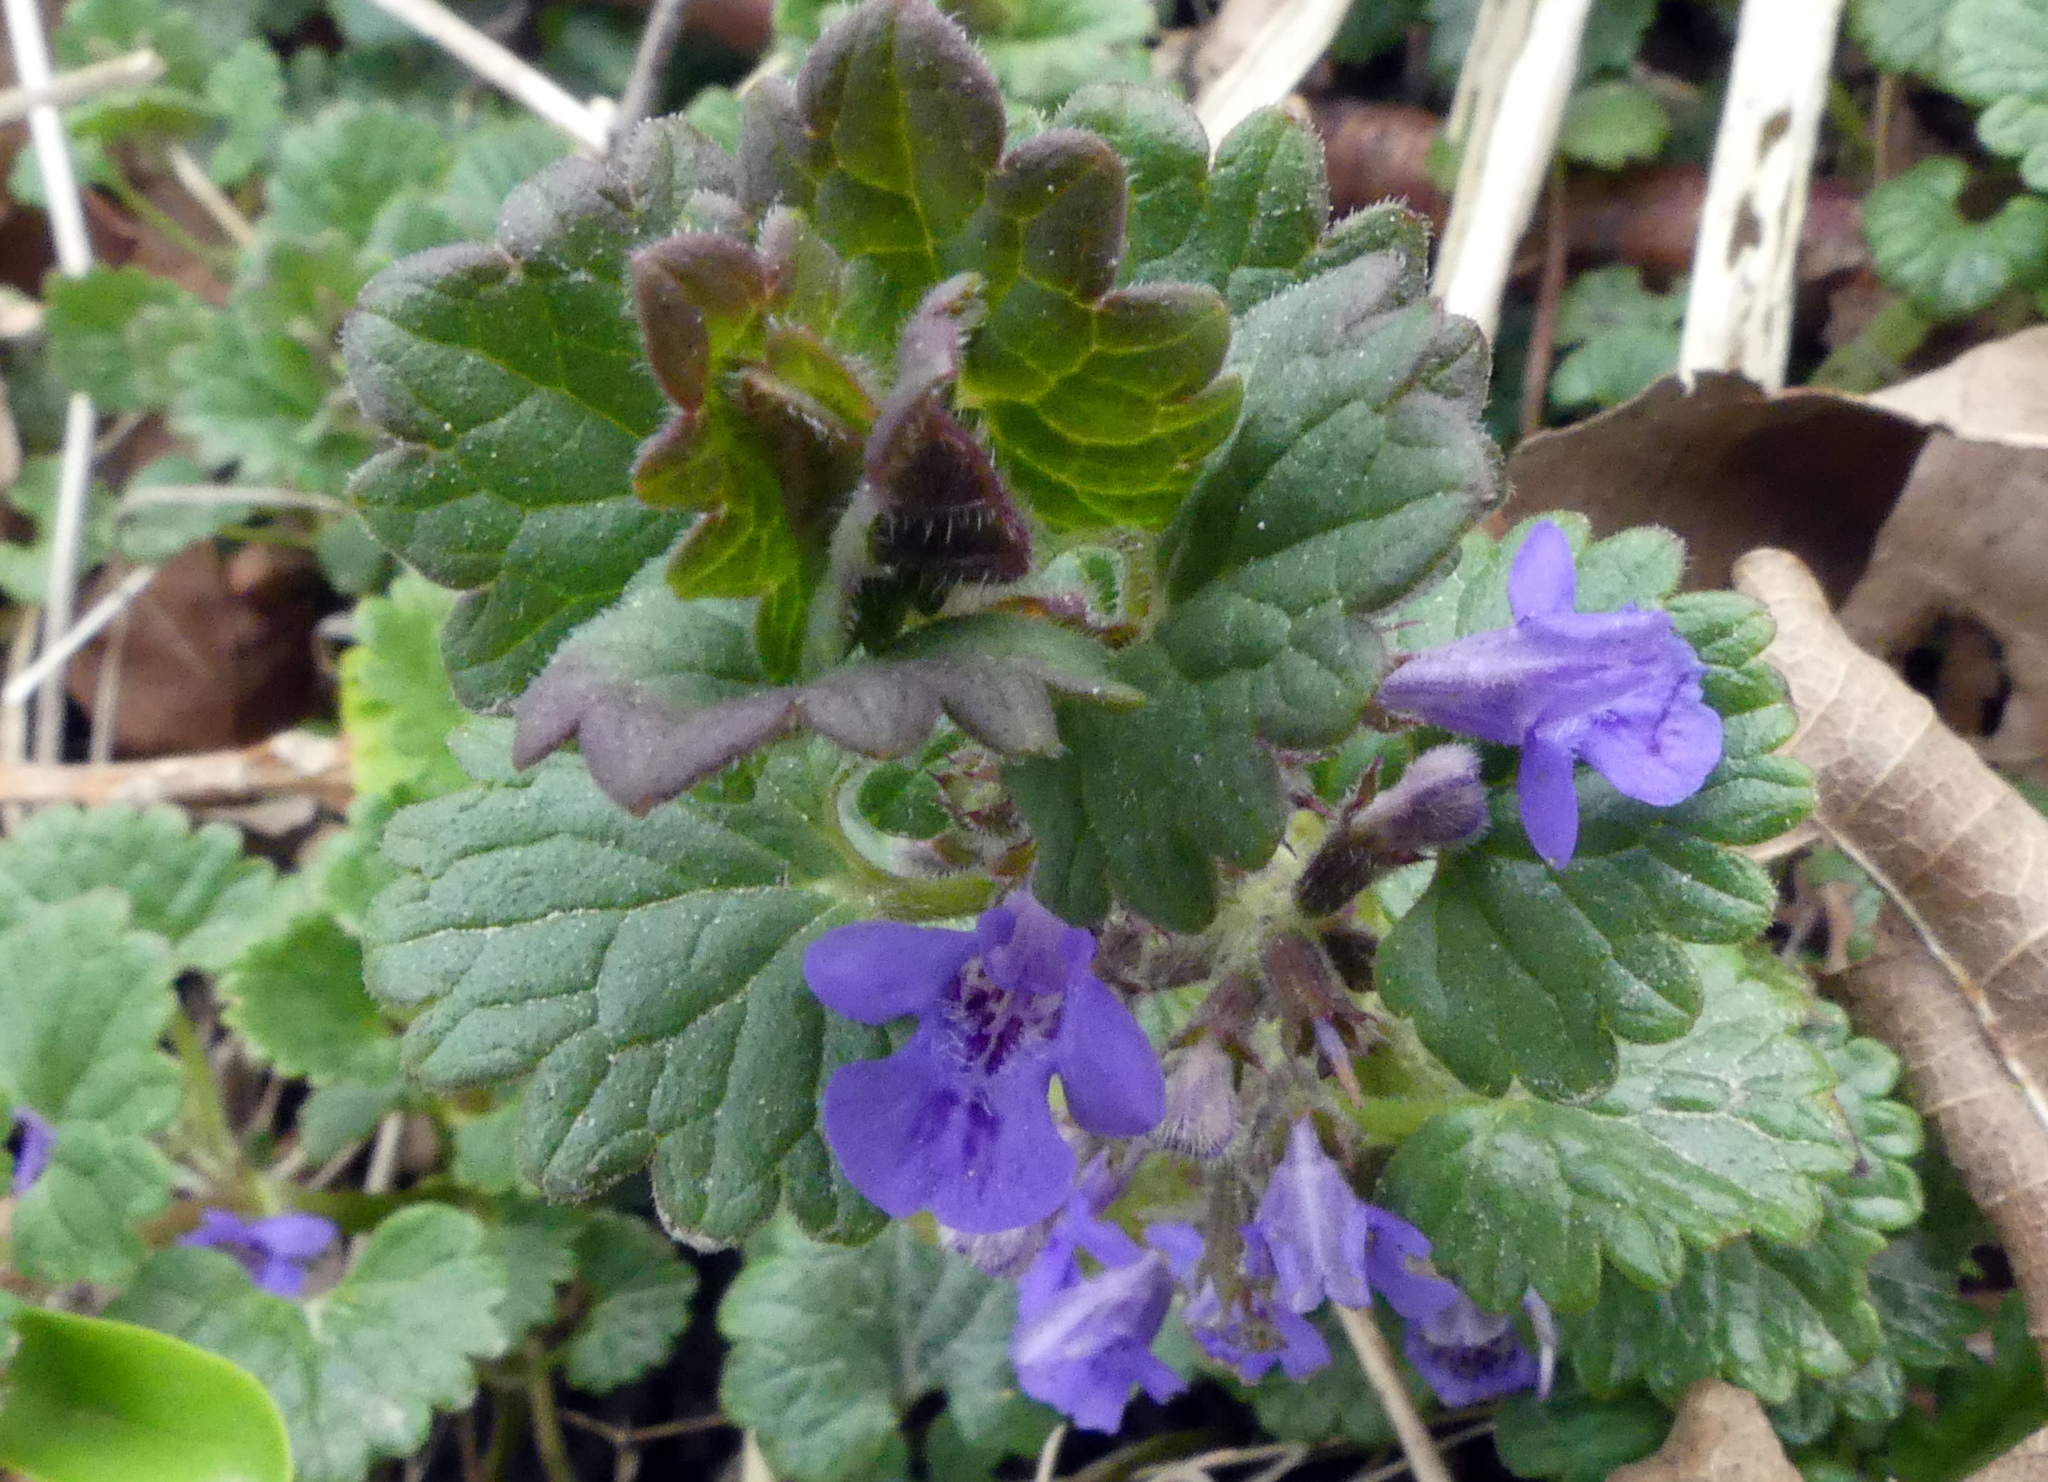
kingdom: Plantae
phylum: Tracheophyta
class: Magnoliopsida
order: Lamiales
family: Lamiaceae
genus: Glechoma
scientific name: Glechoma hederacea
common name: Ground ivy
